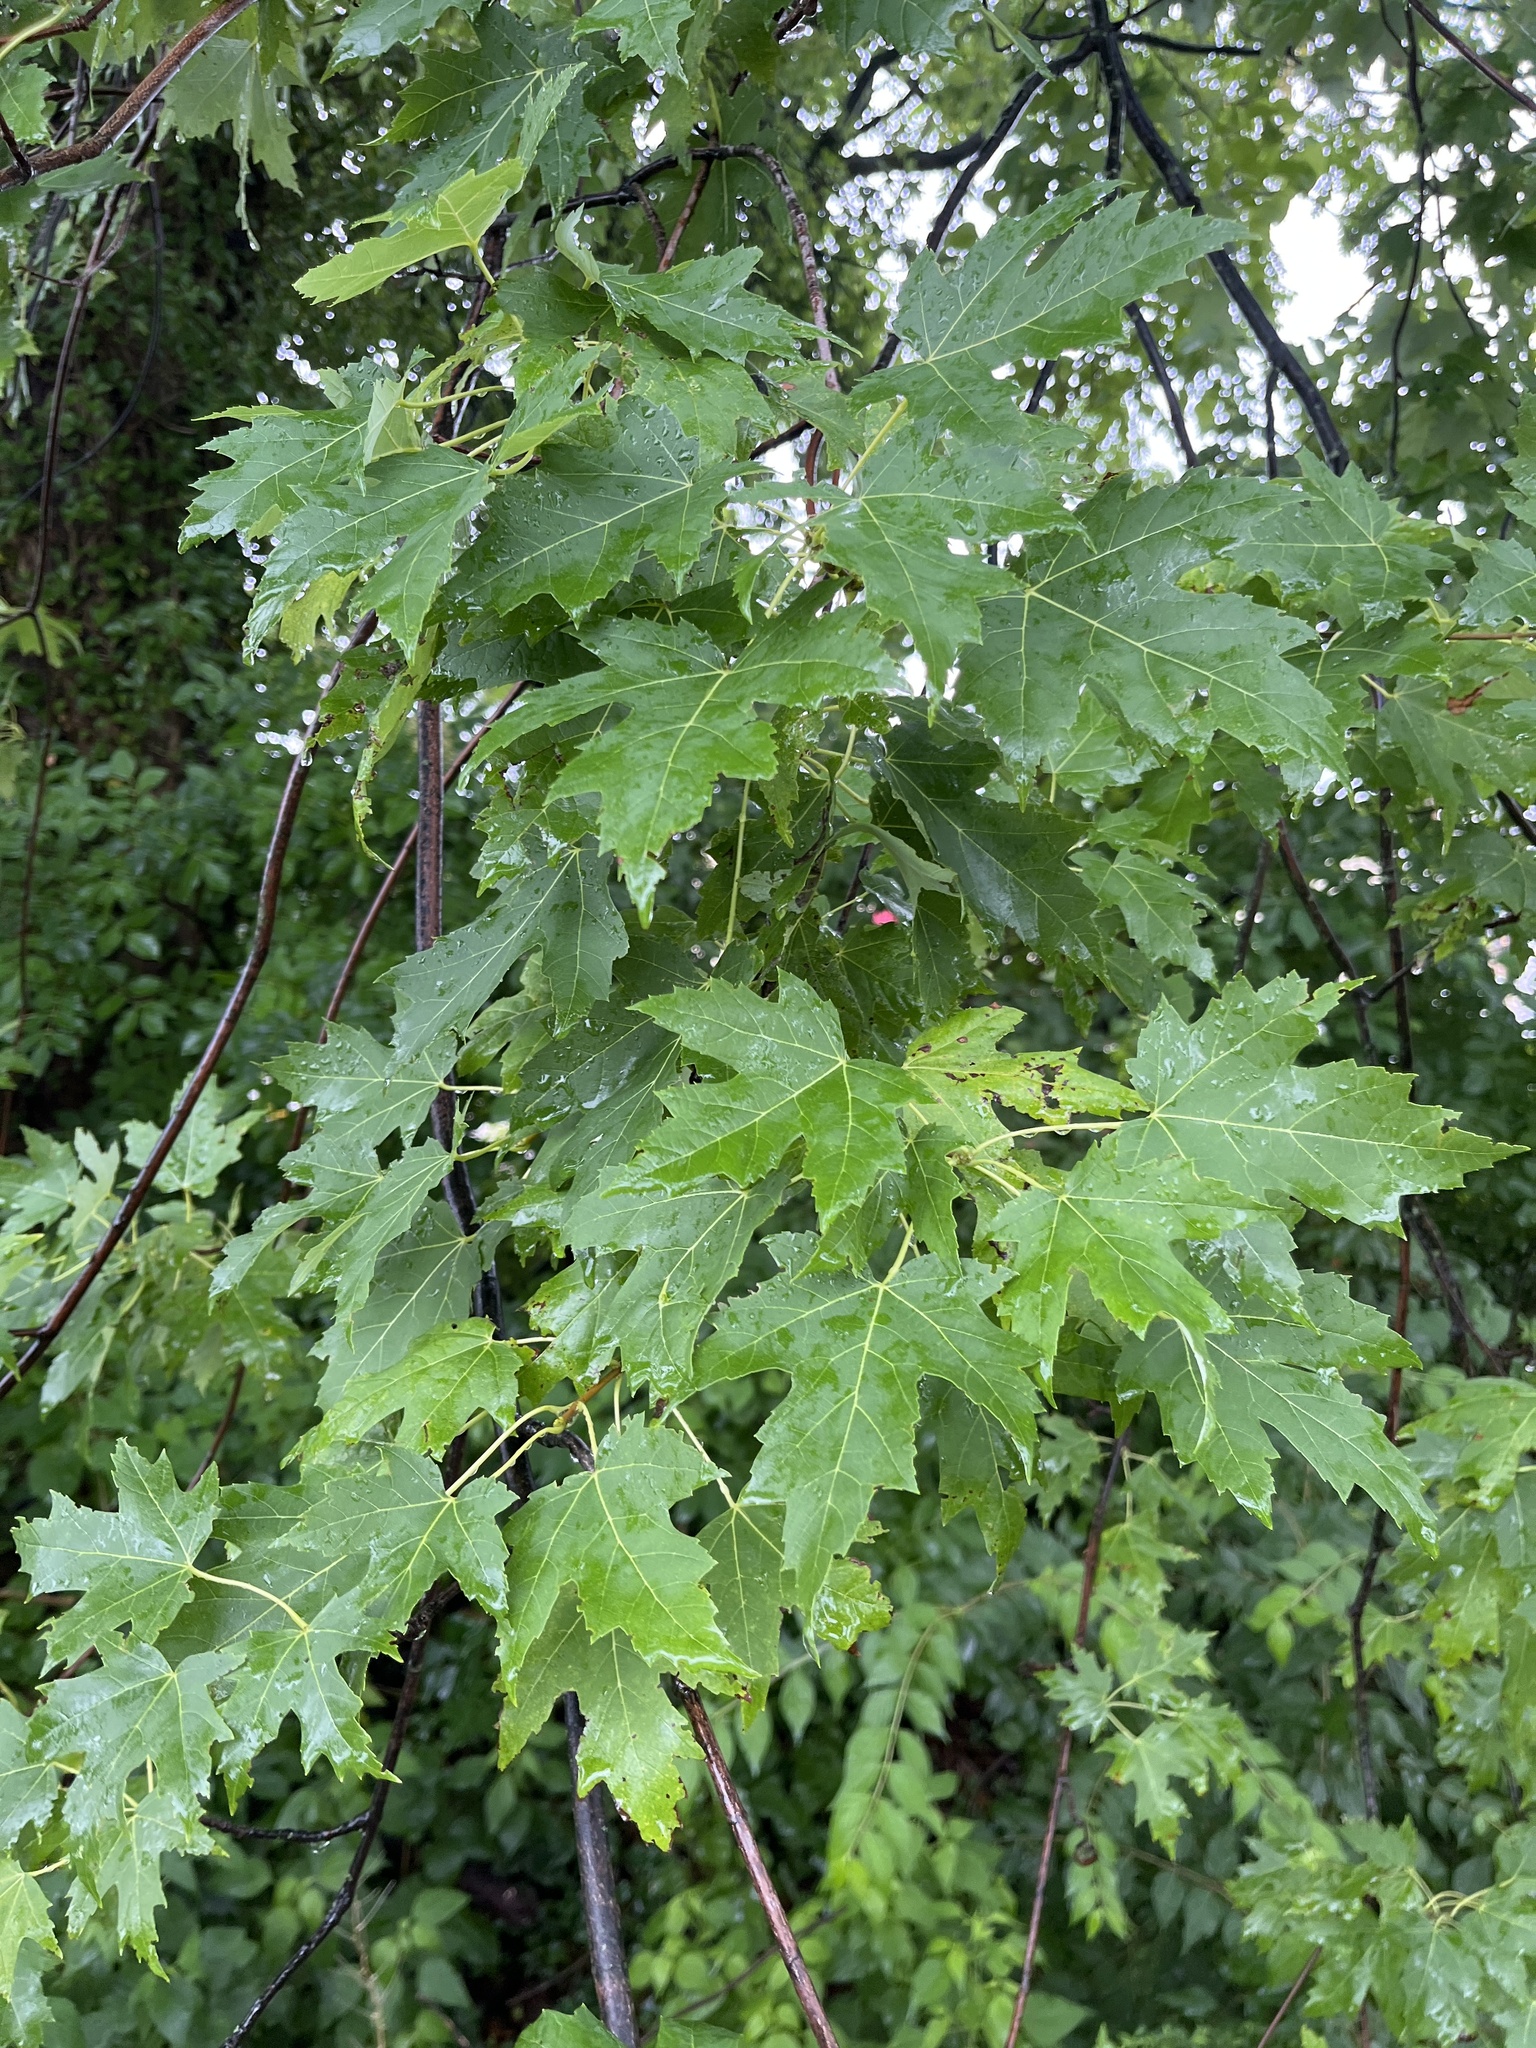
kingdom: Plantae
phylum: Tracheophyta
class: Magnoliopsida
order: Sapindales
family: Sapindaceae
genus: Acer
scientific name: Acer saccharinum
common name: Silver maple
